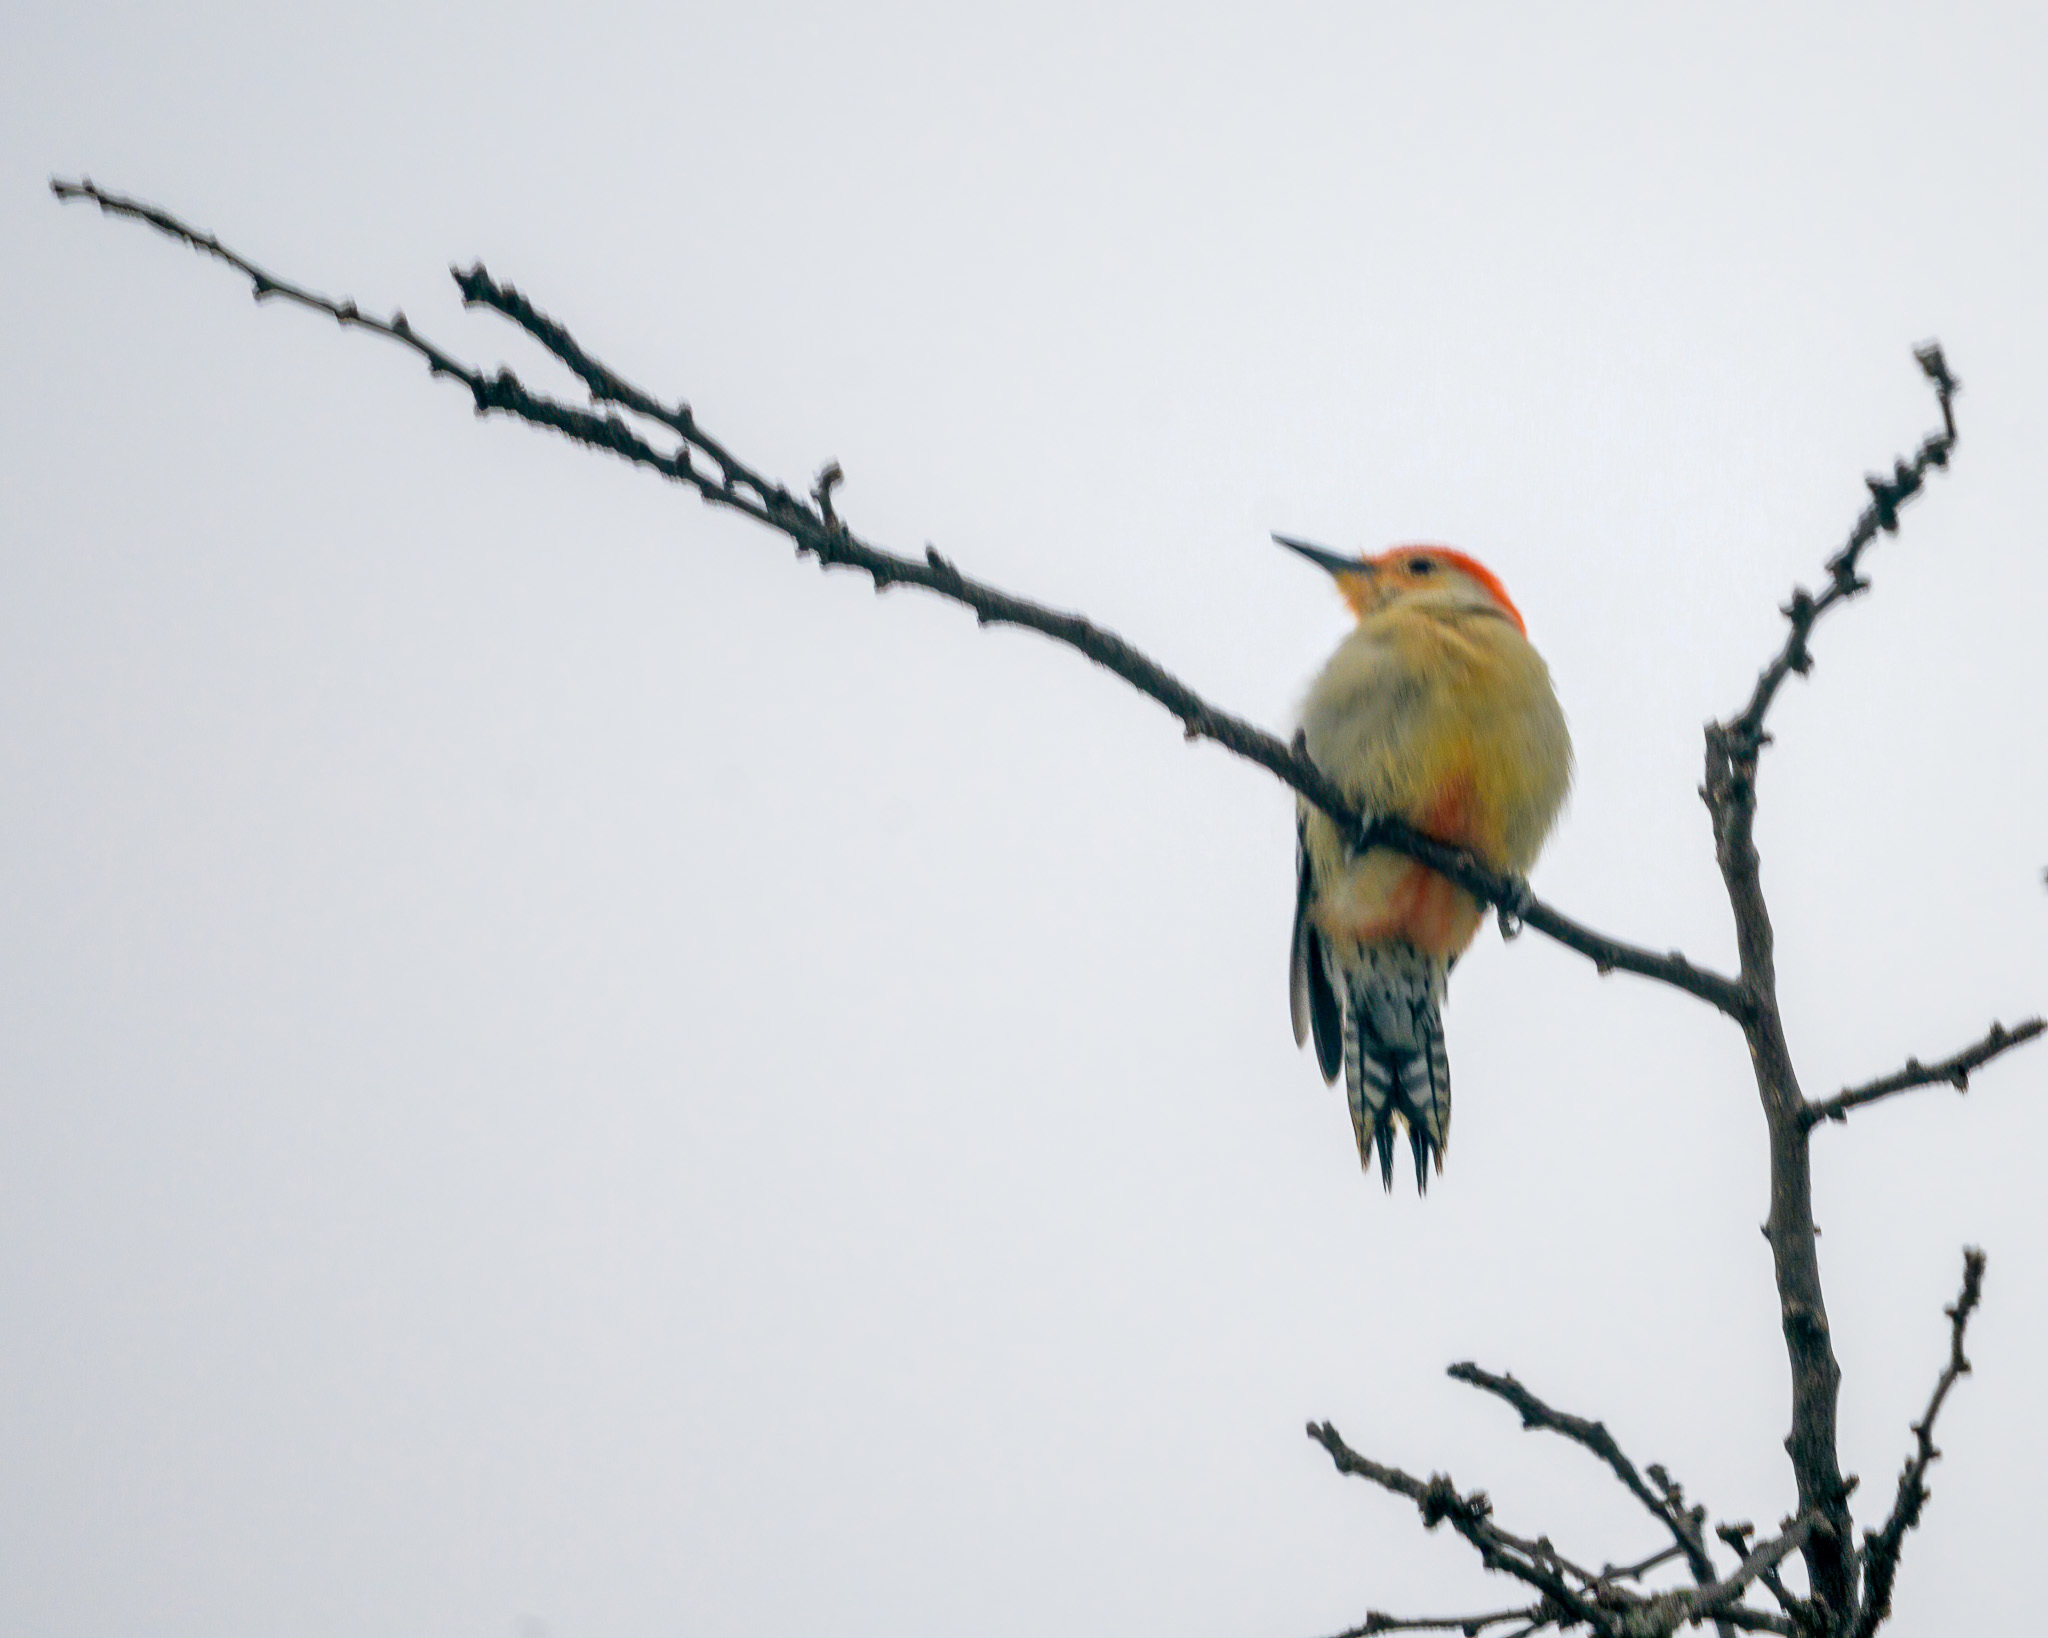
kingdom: Animalia
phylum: Chordata
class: Aves
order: Piciformes
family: Picidae
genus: Melanerpes
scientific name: Melanerpes carolinus
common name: Red-bellied woodpecker
